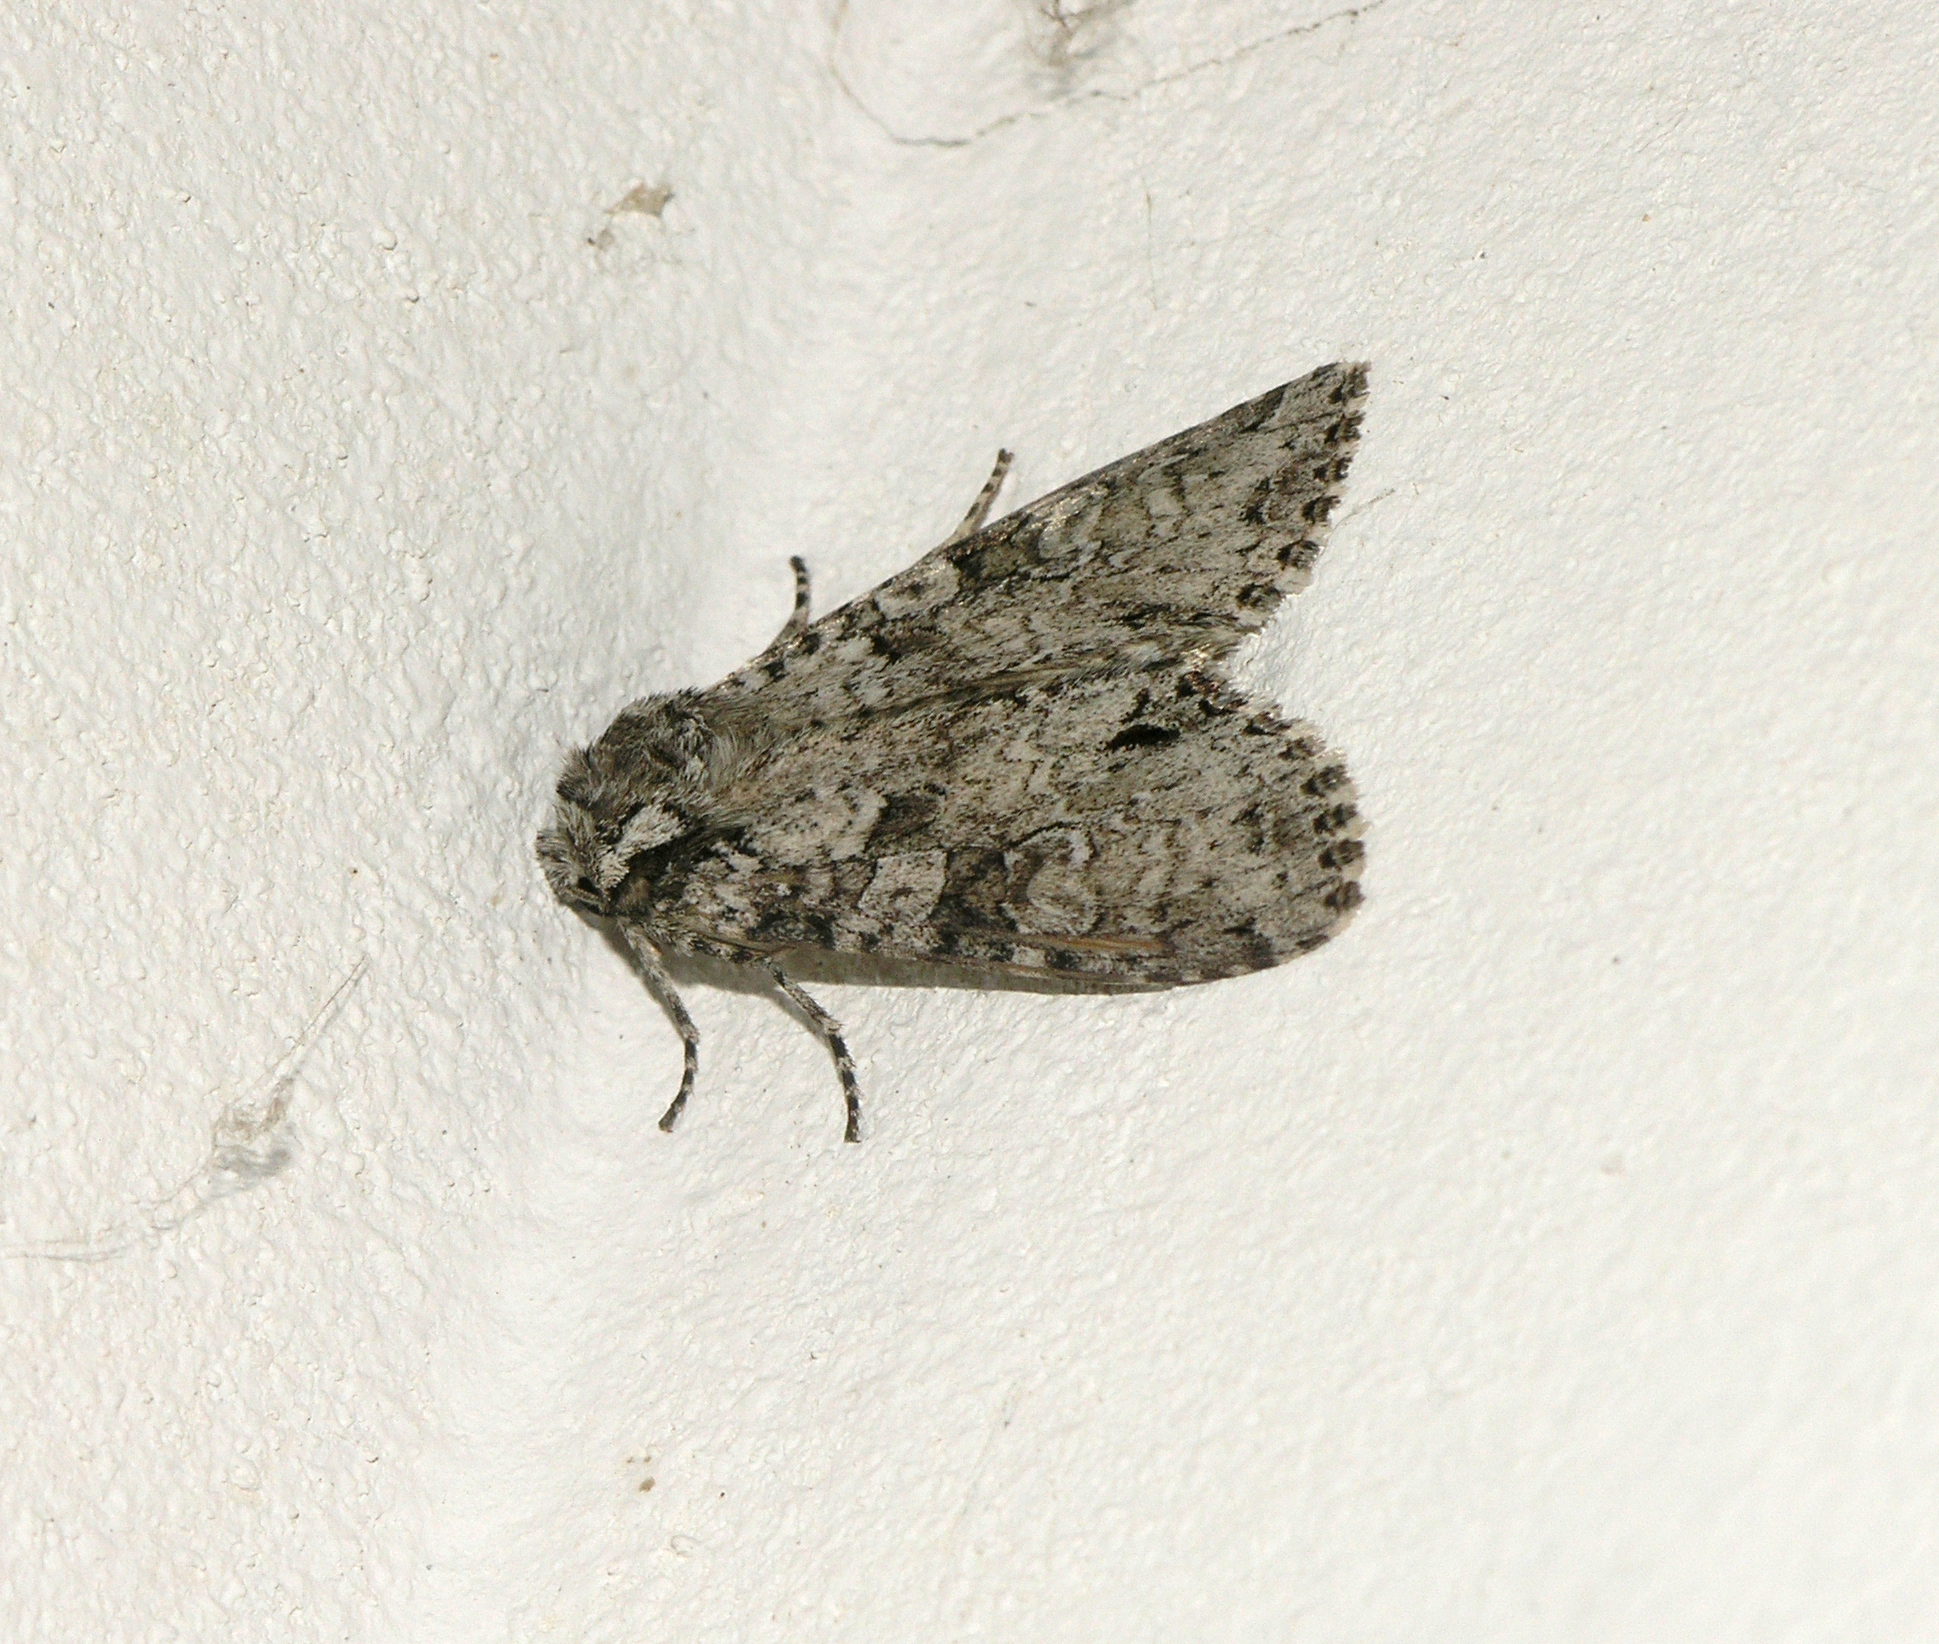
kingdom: Animalia
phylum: Arthropoda
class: Insecta
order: Lepidoptera
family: Noctuidae
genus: Polia
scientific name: Polia nebulosa
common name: Grey arches
